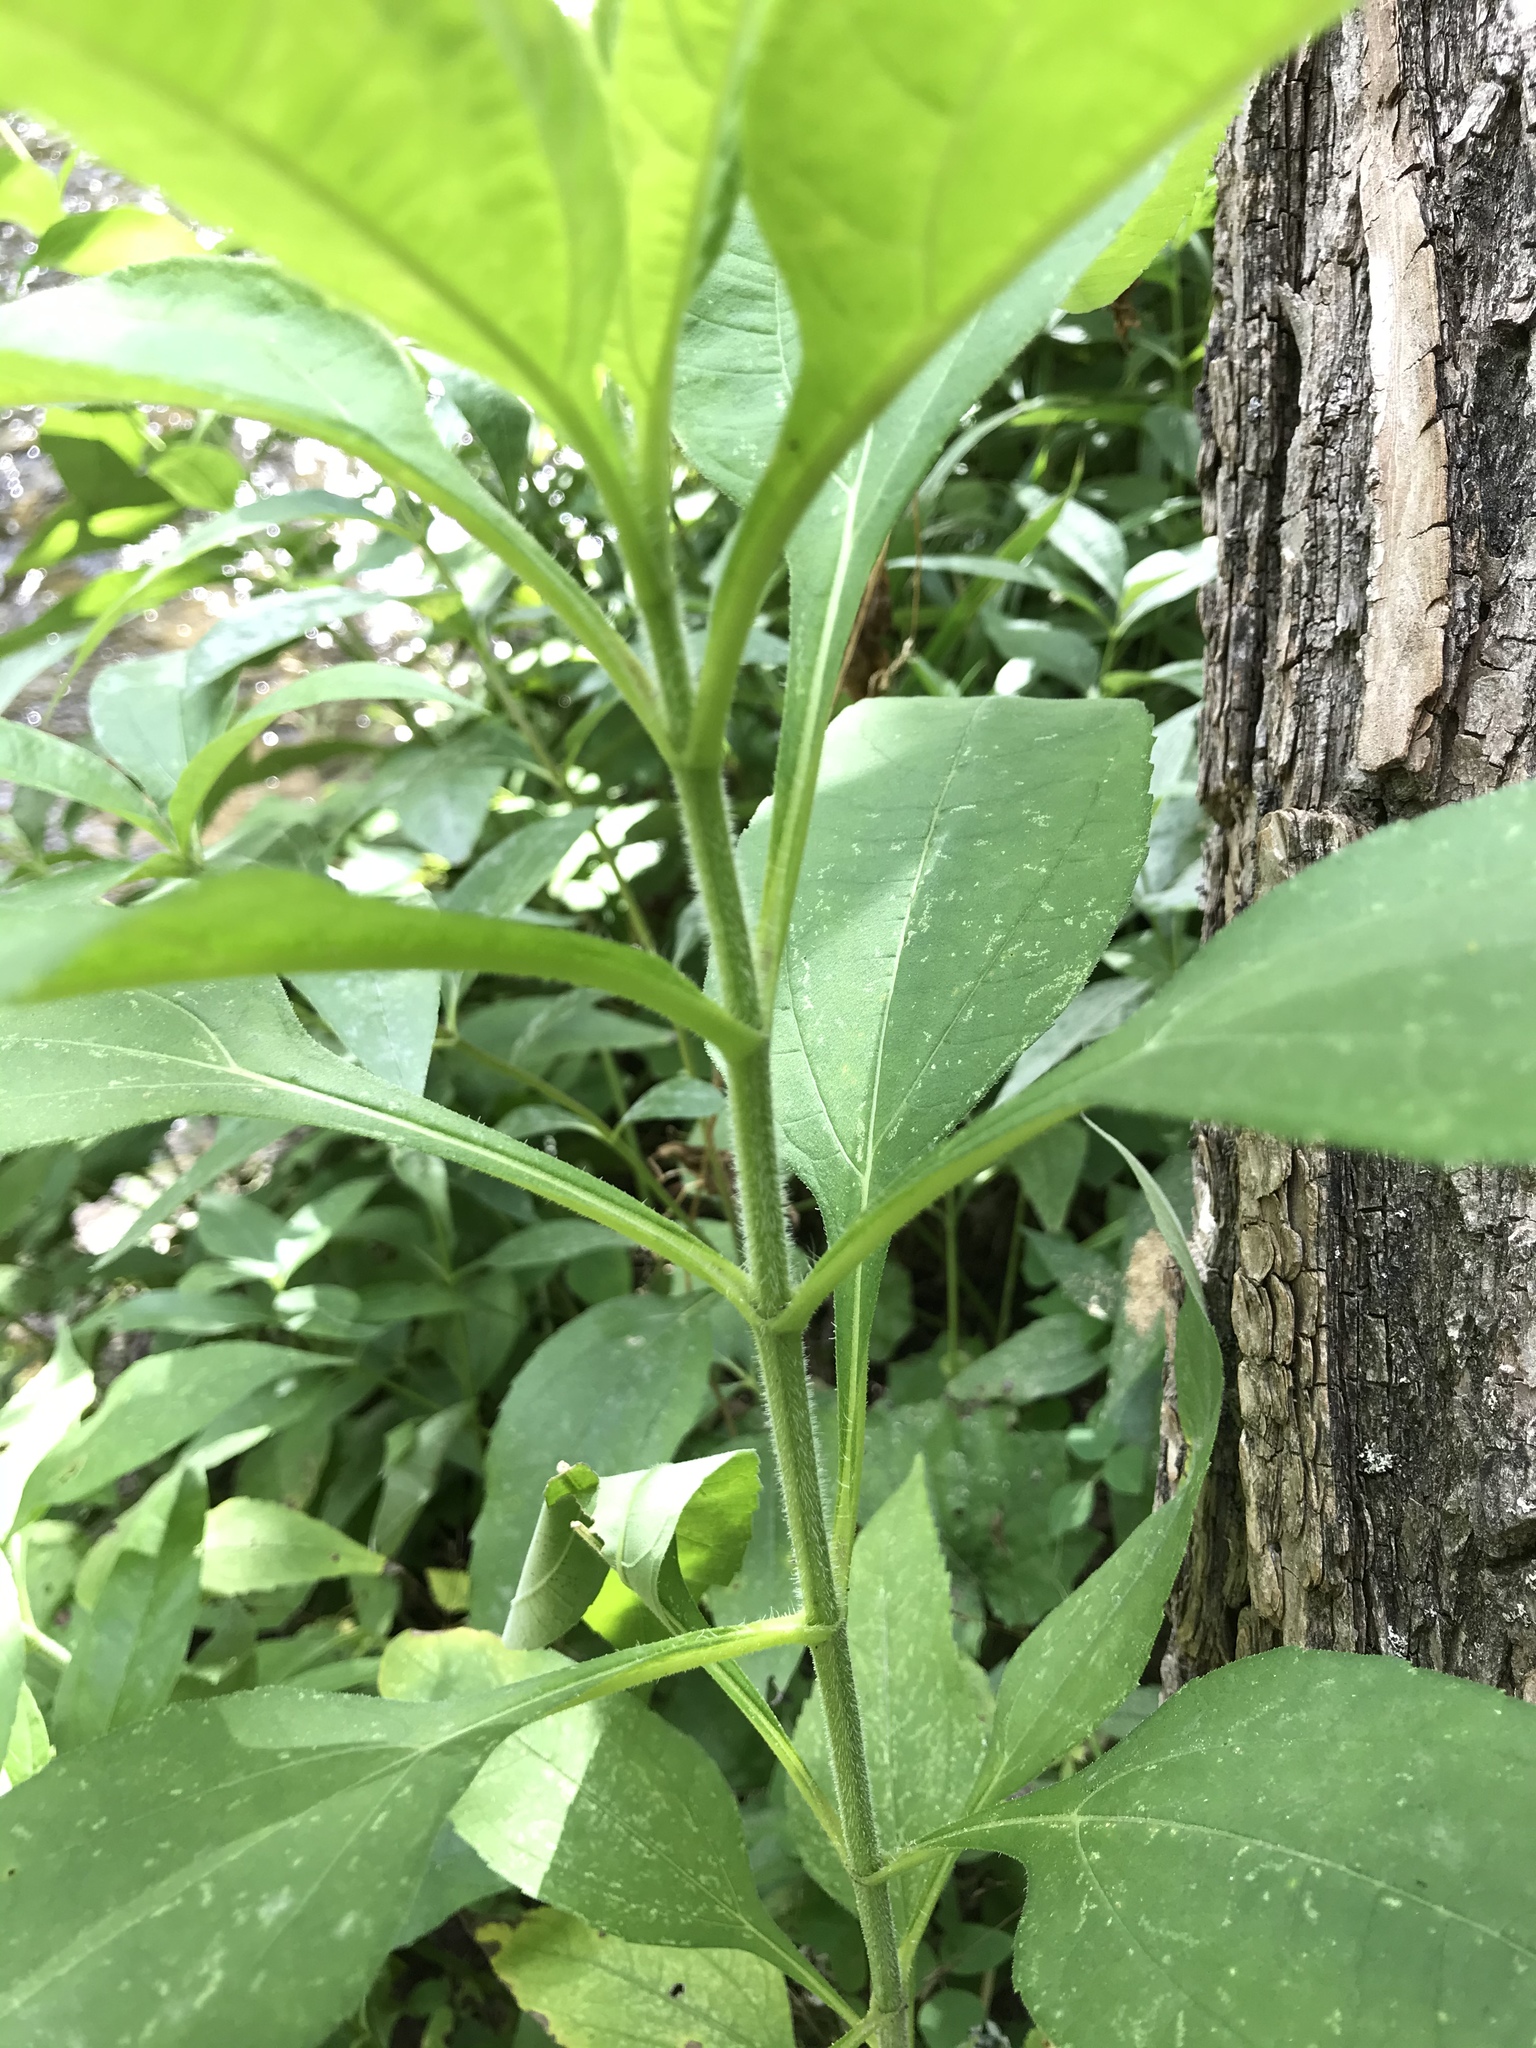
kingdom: Plantae
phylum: Tracheophyta
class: Magnoliopsida
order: Asterales
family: Asteraceae
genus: Helianthus
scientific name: Helianthus tuberosus
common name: Jerusalem artichoke
